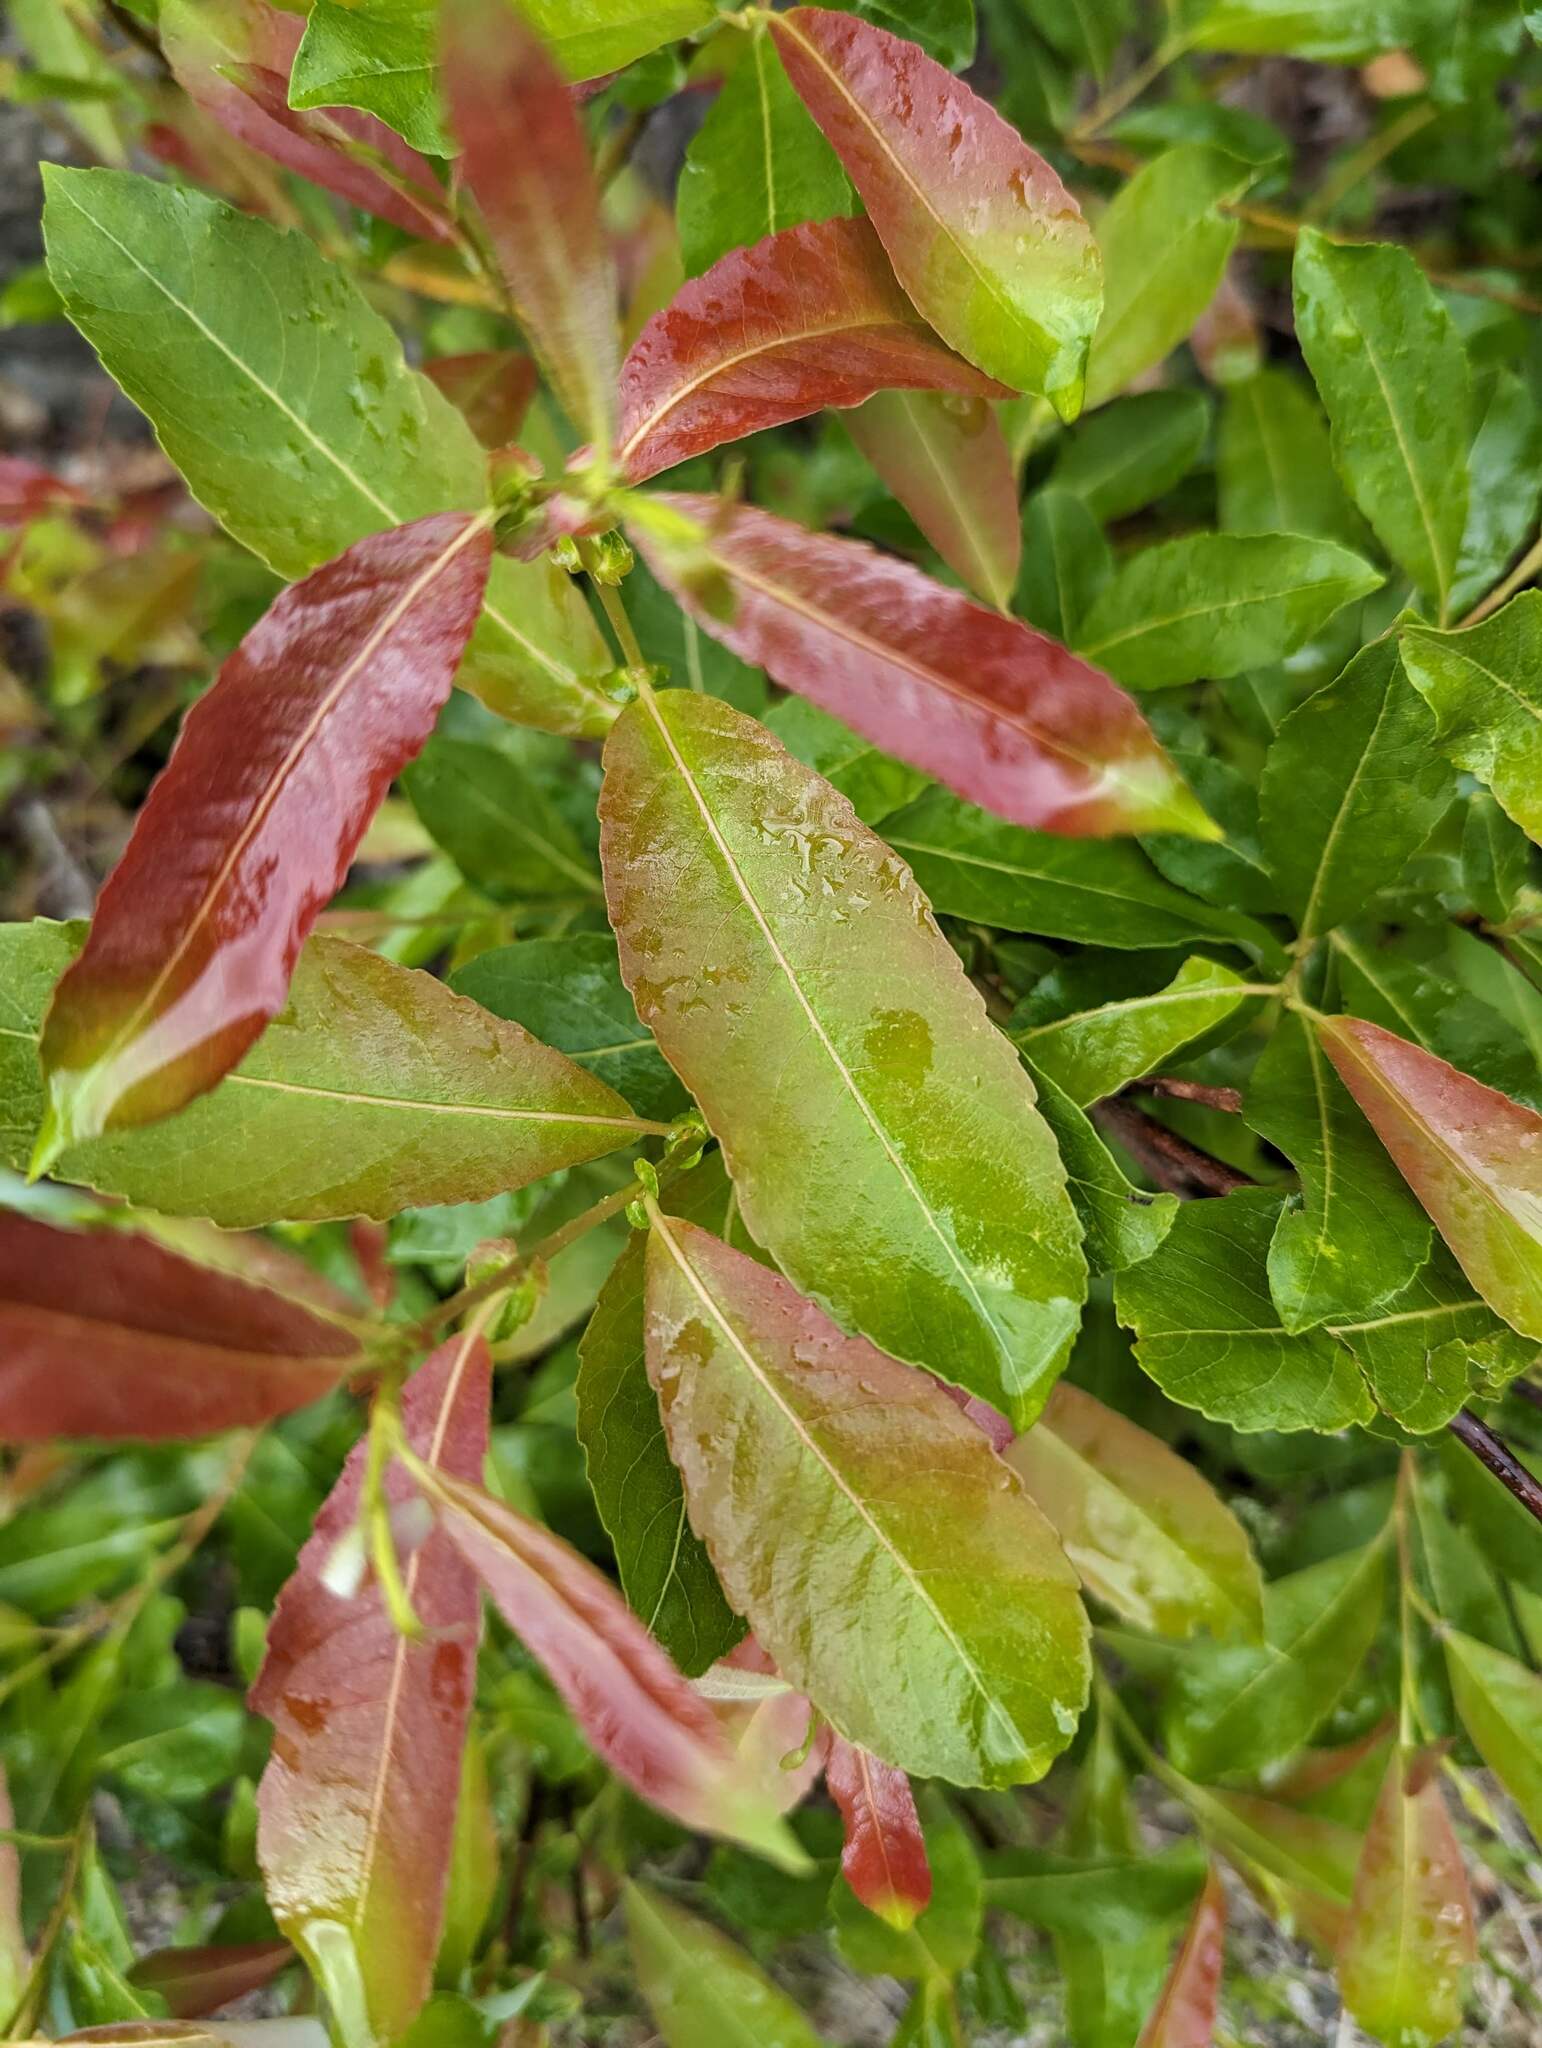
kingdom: Plantae
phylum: Tracheophyta
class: Magnoliopsida
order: Malpighiales
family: Salicaceae
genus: Salix
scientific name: Salix discolor
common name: Glaucous willow
